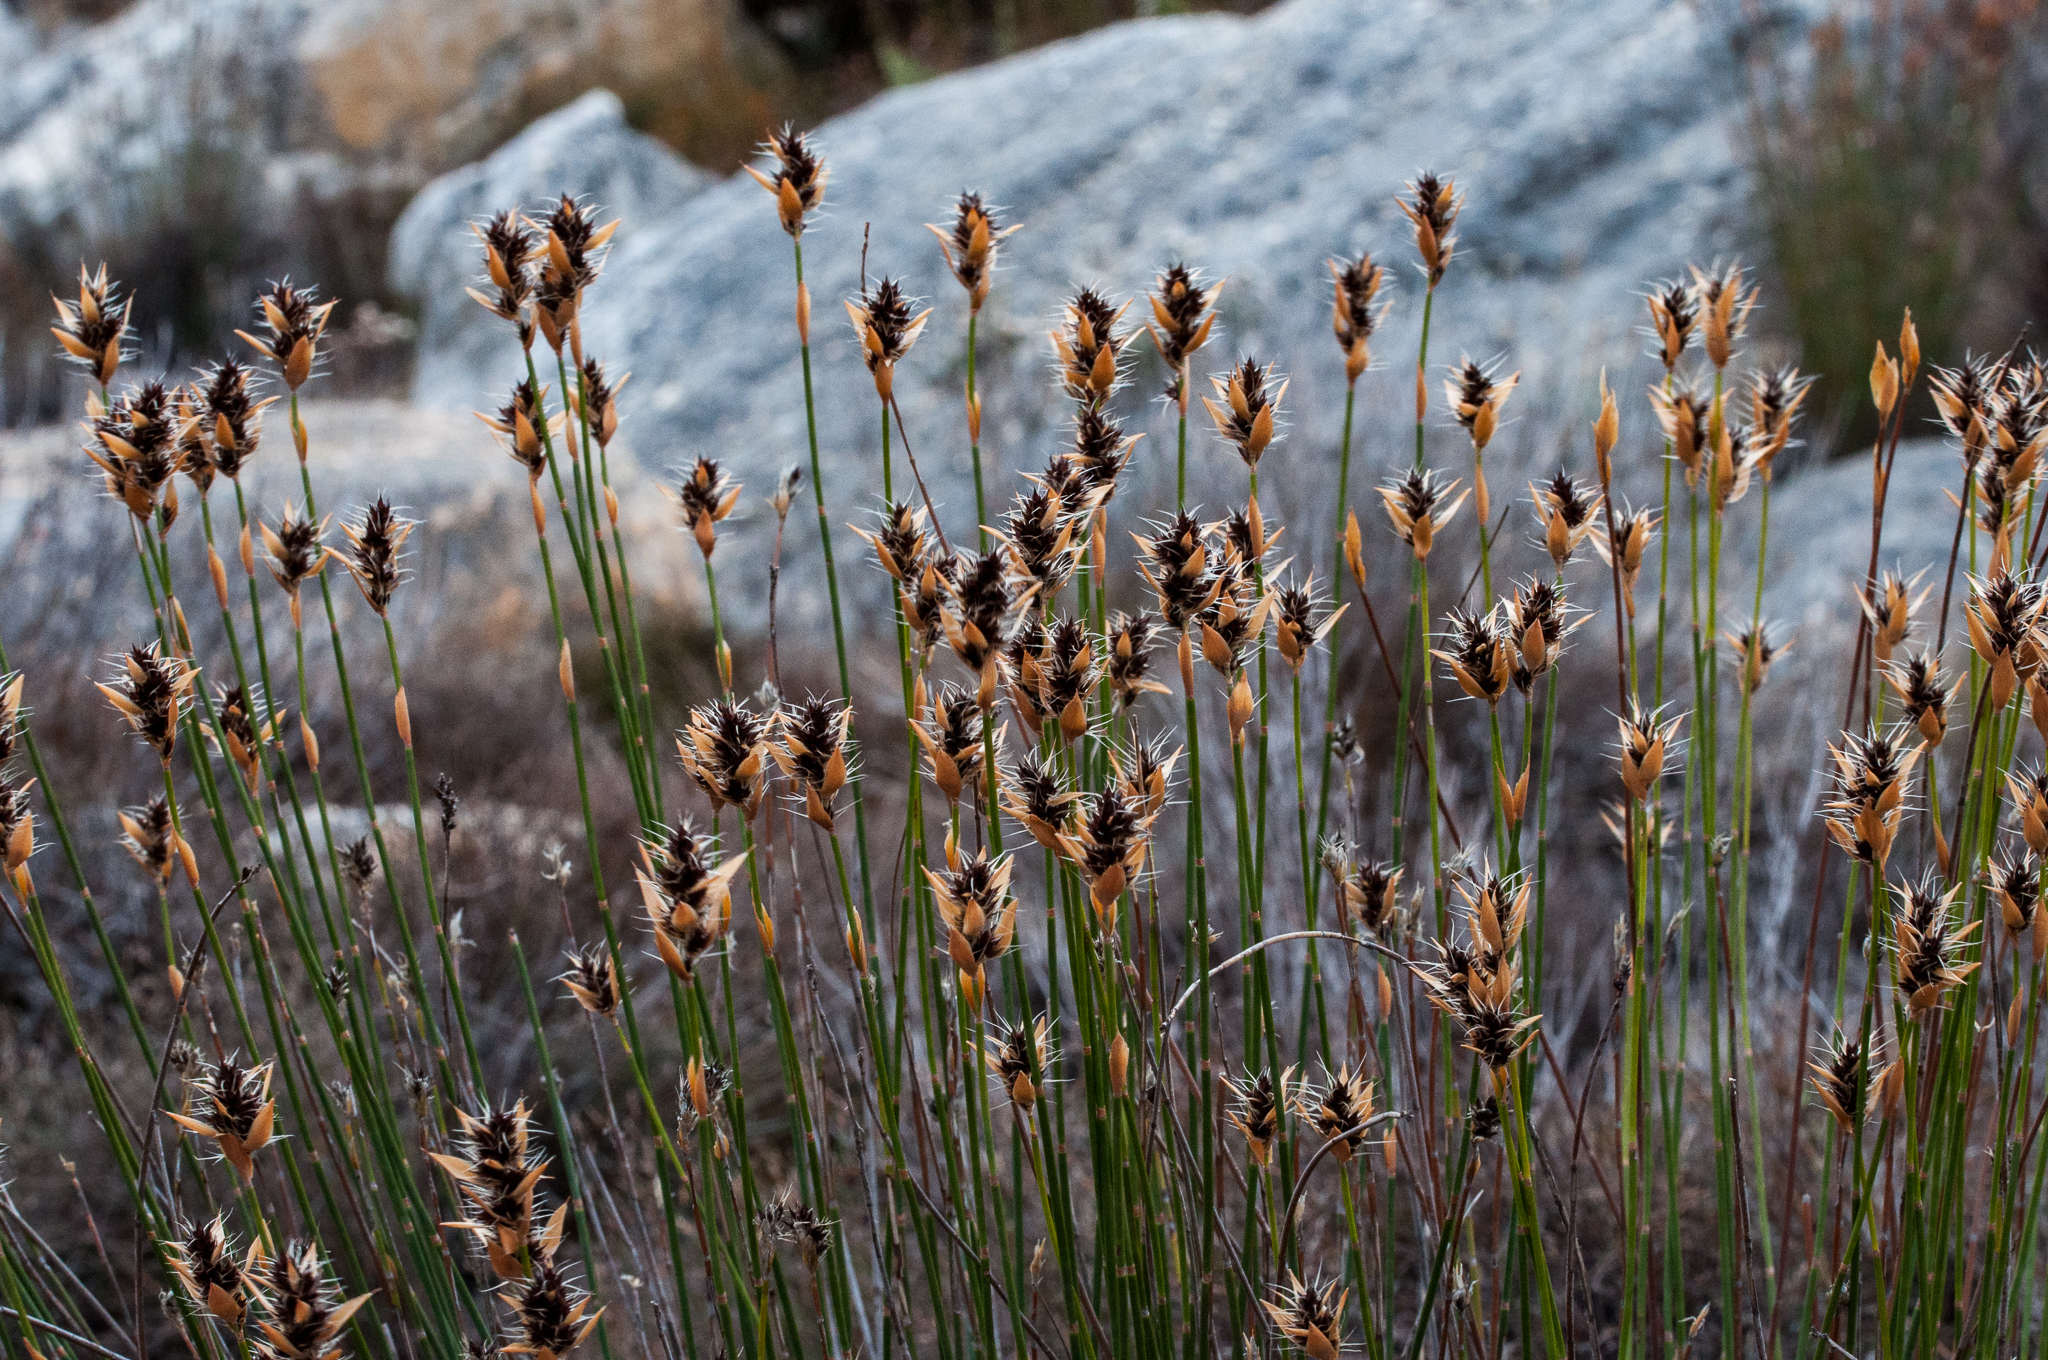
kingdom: Plantae
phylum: Tracheophyta
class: Liliopsida
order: Poales
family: Restionaceae
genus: Askidiosperma
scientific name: Askidiosperma capitatum
